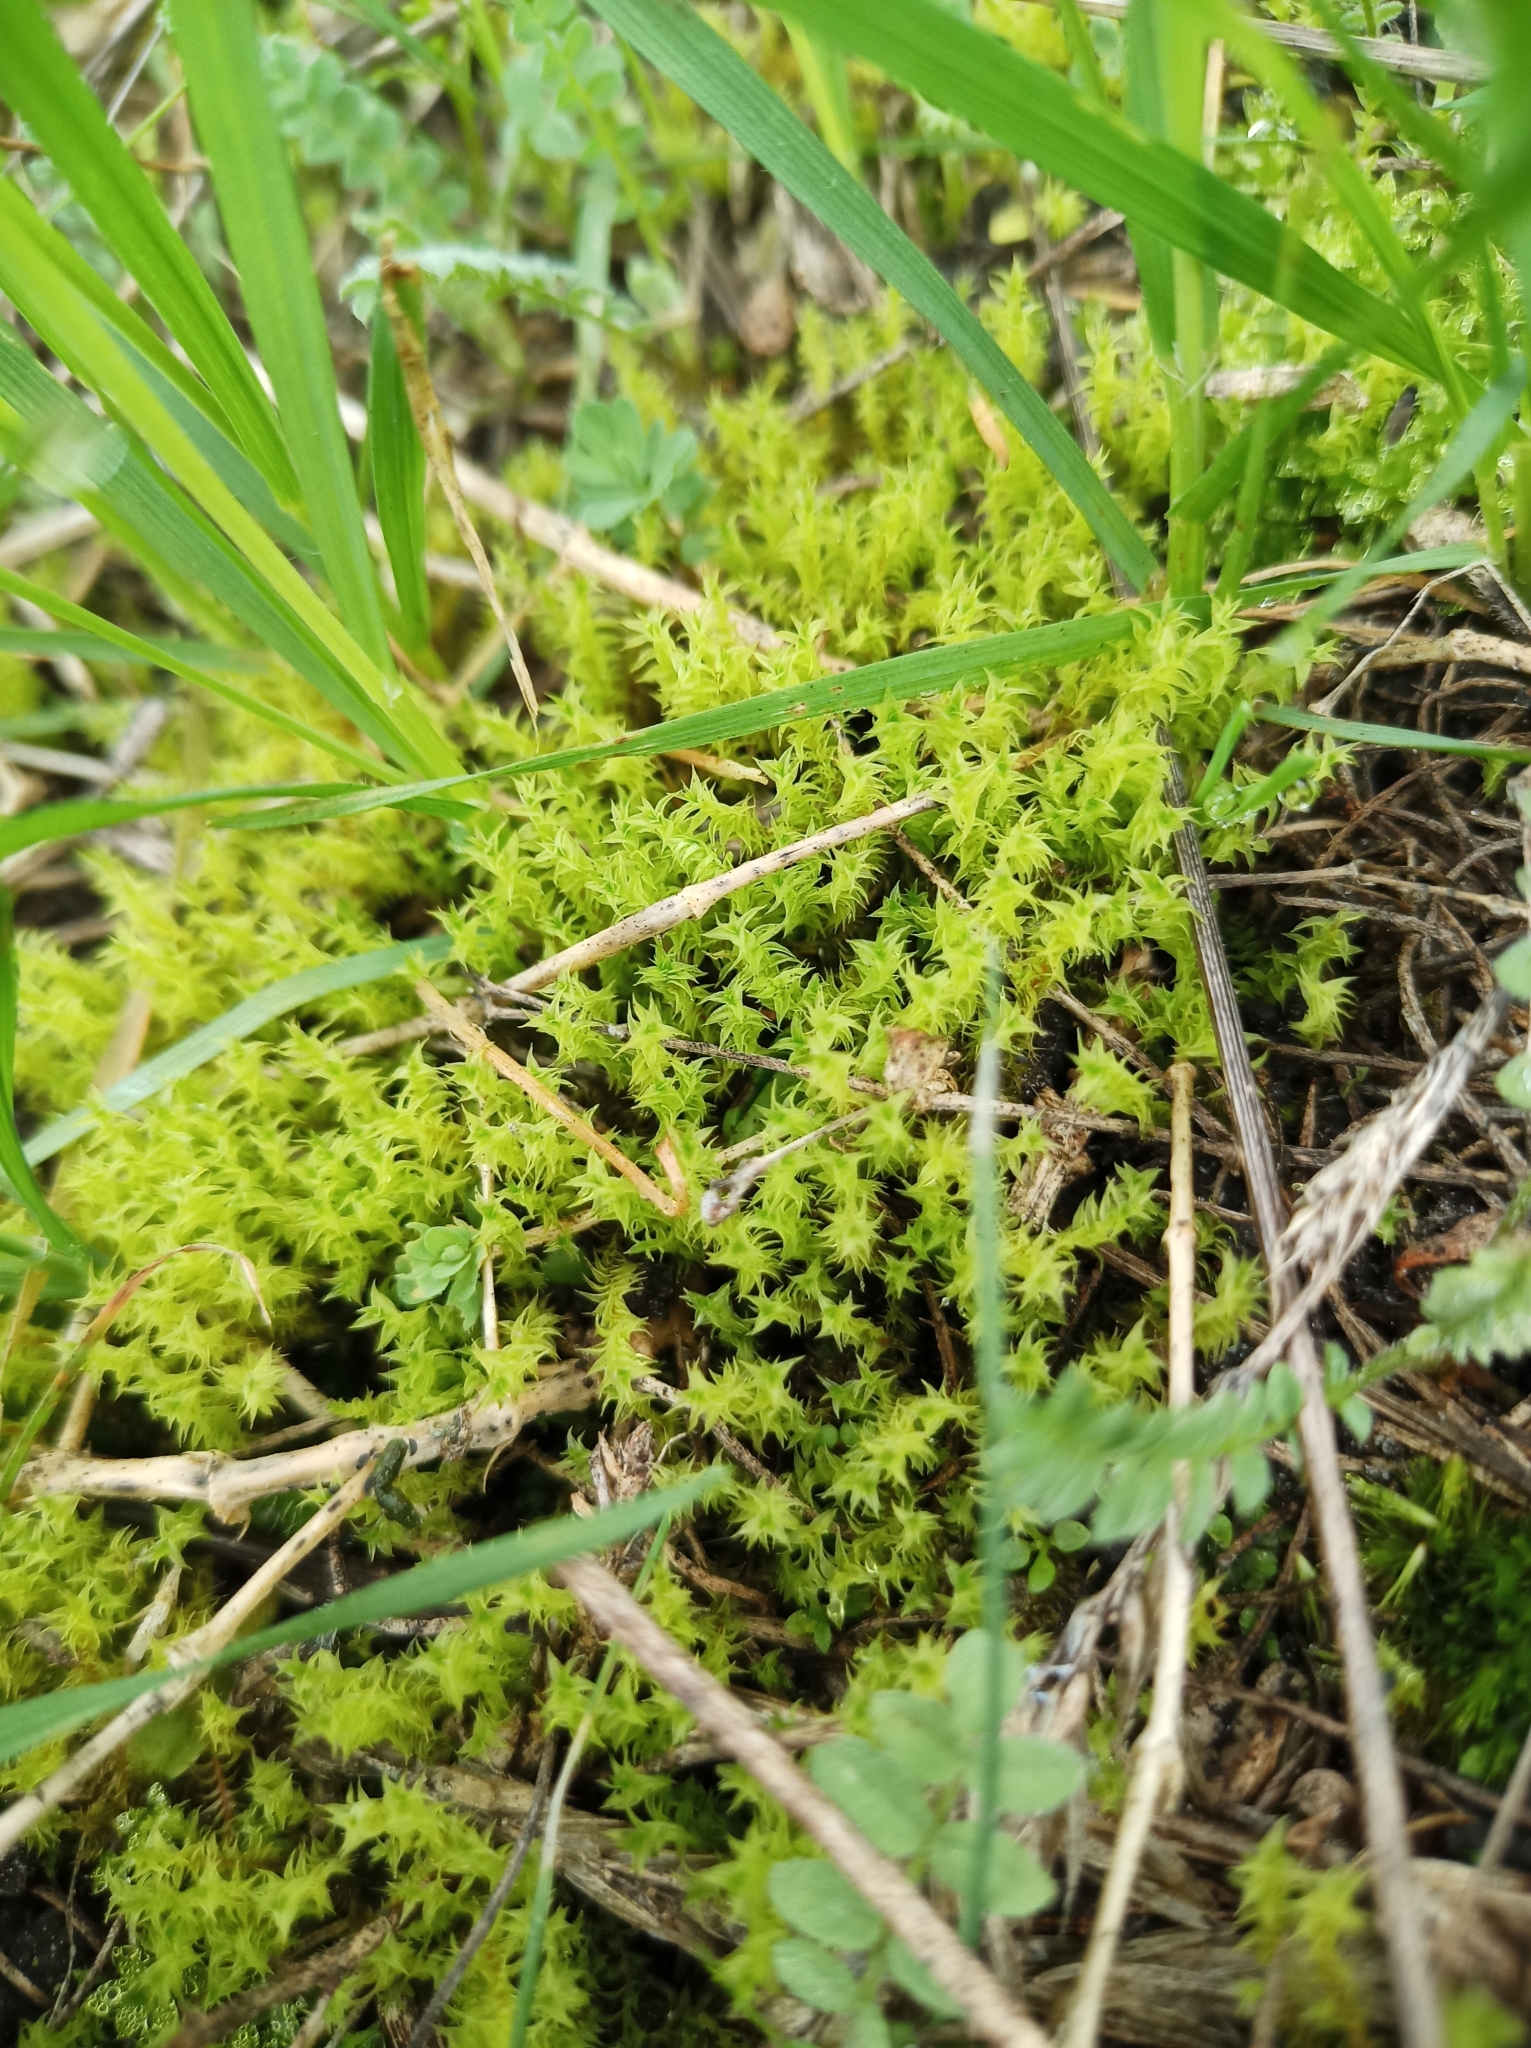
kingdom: Plantae
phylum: Bryophyta
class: Bryopsida
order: Pottiales
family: Pottiaceae
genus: Triquetrella
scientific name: Triquetrella papillata
